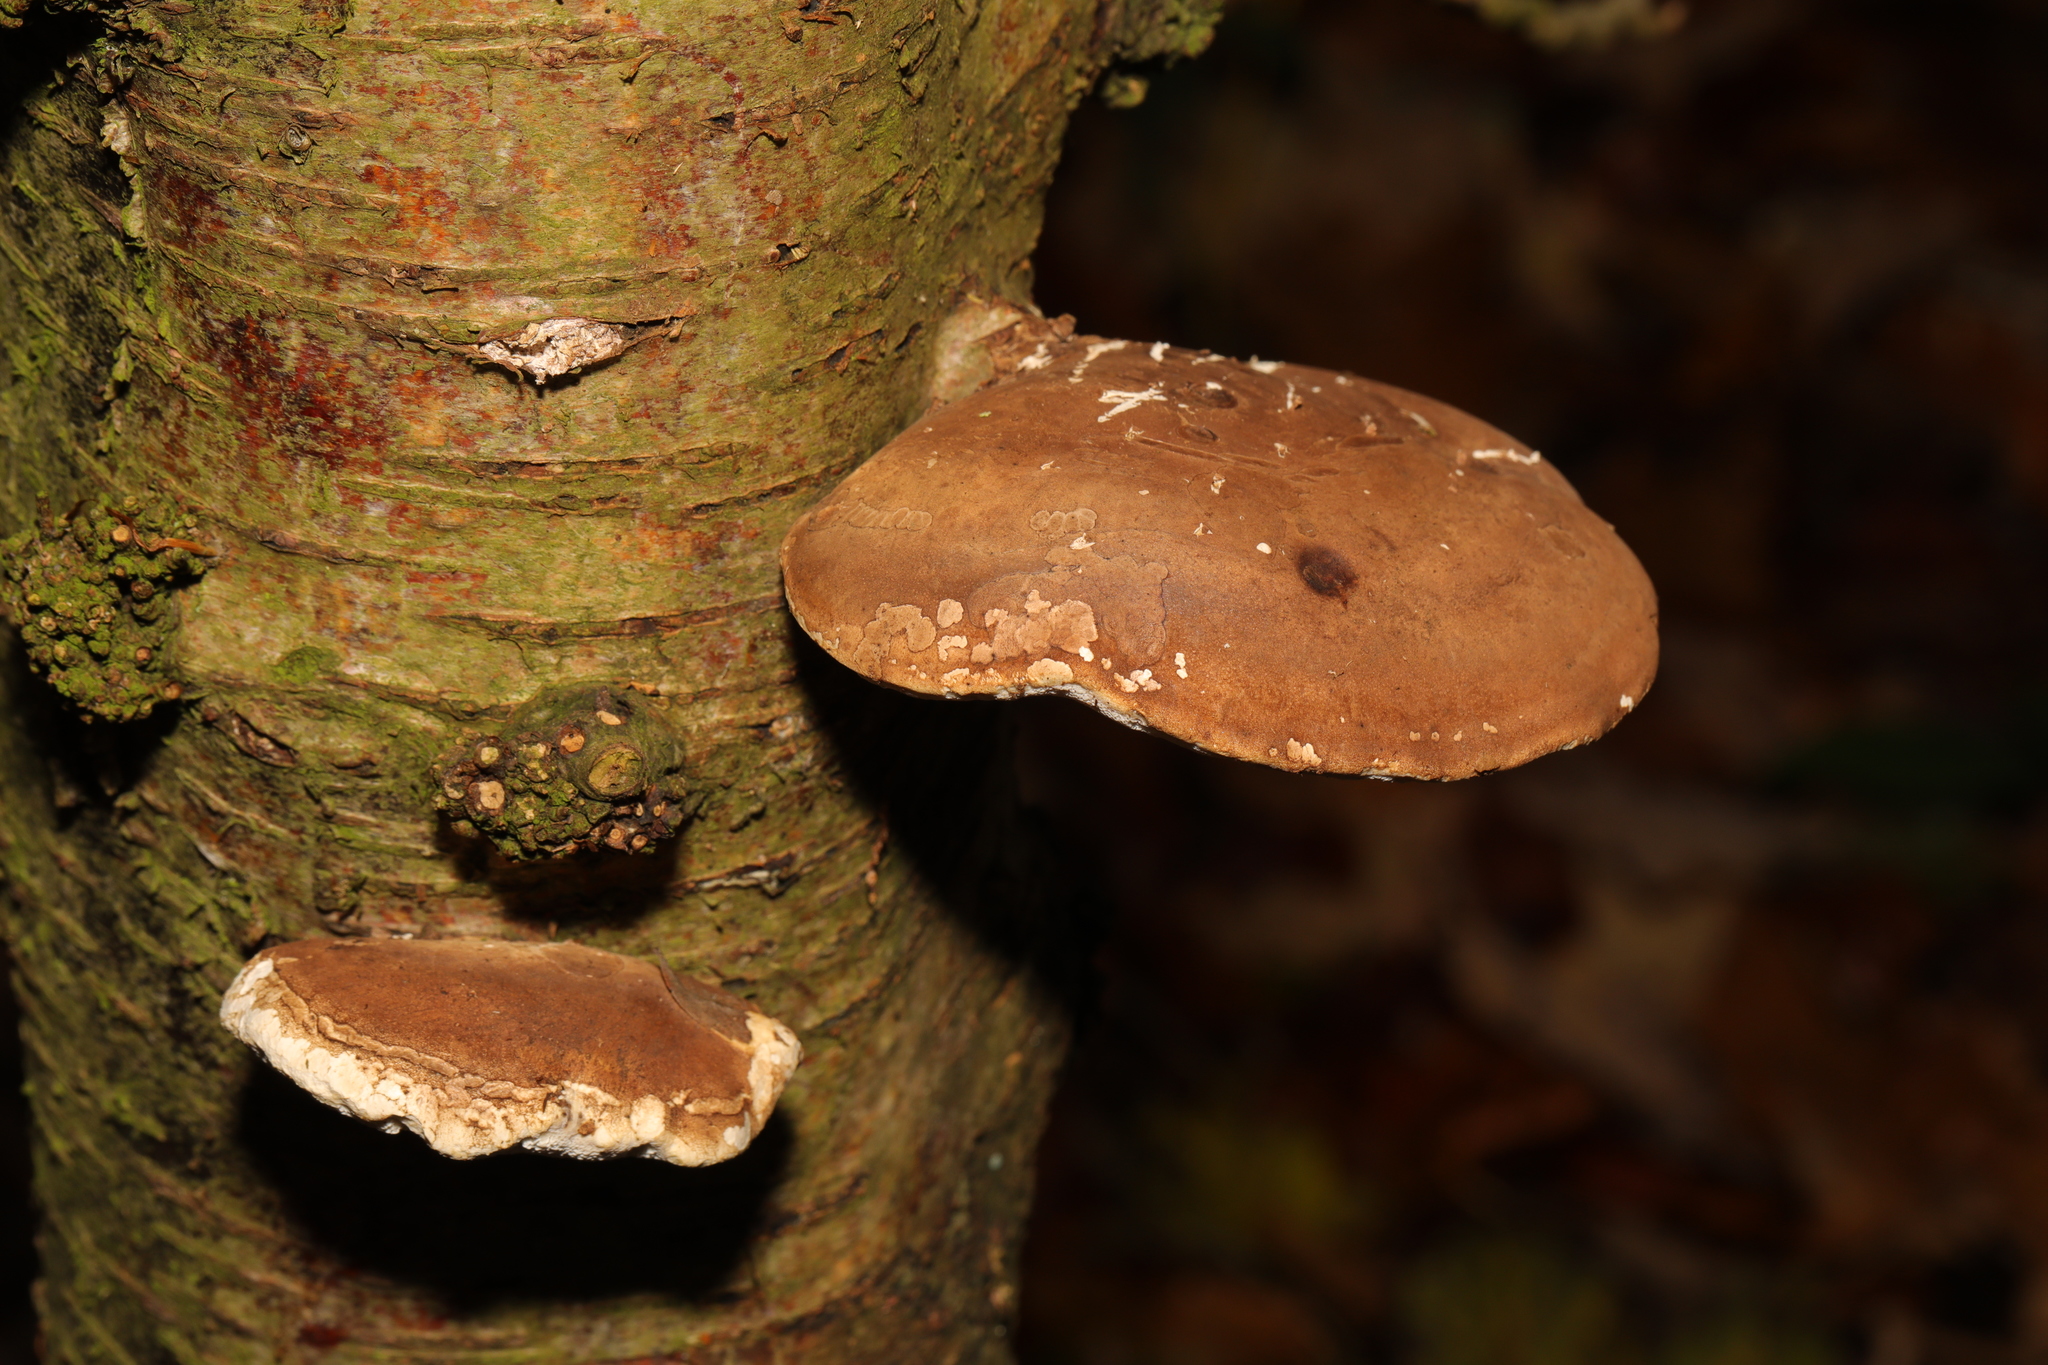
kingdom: Fungi
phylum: Basidiomycota
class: Agaricomycetes
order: Polyporales
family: Fomitopsidaceae
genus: Fomitopsis
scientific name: Fomitopsis betulina
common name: Birch polypore
